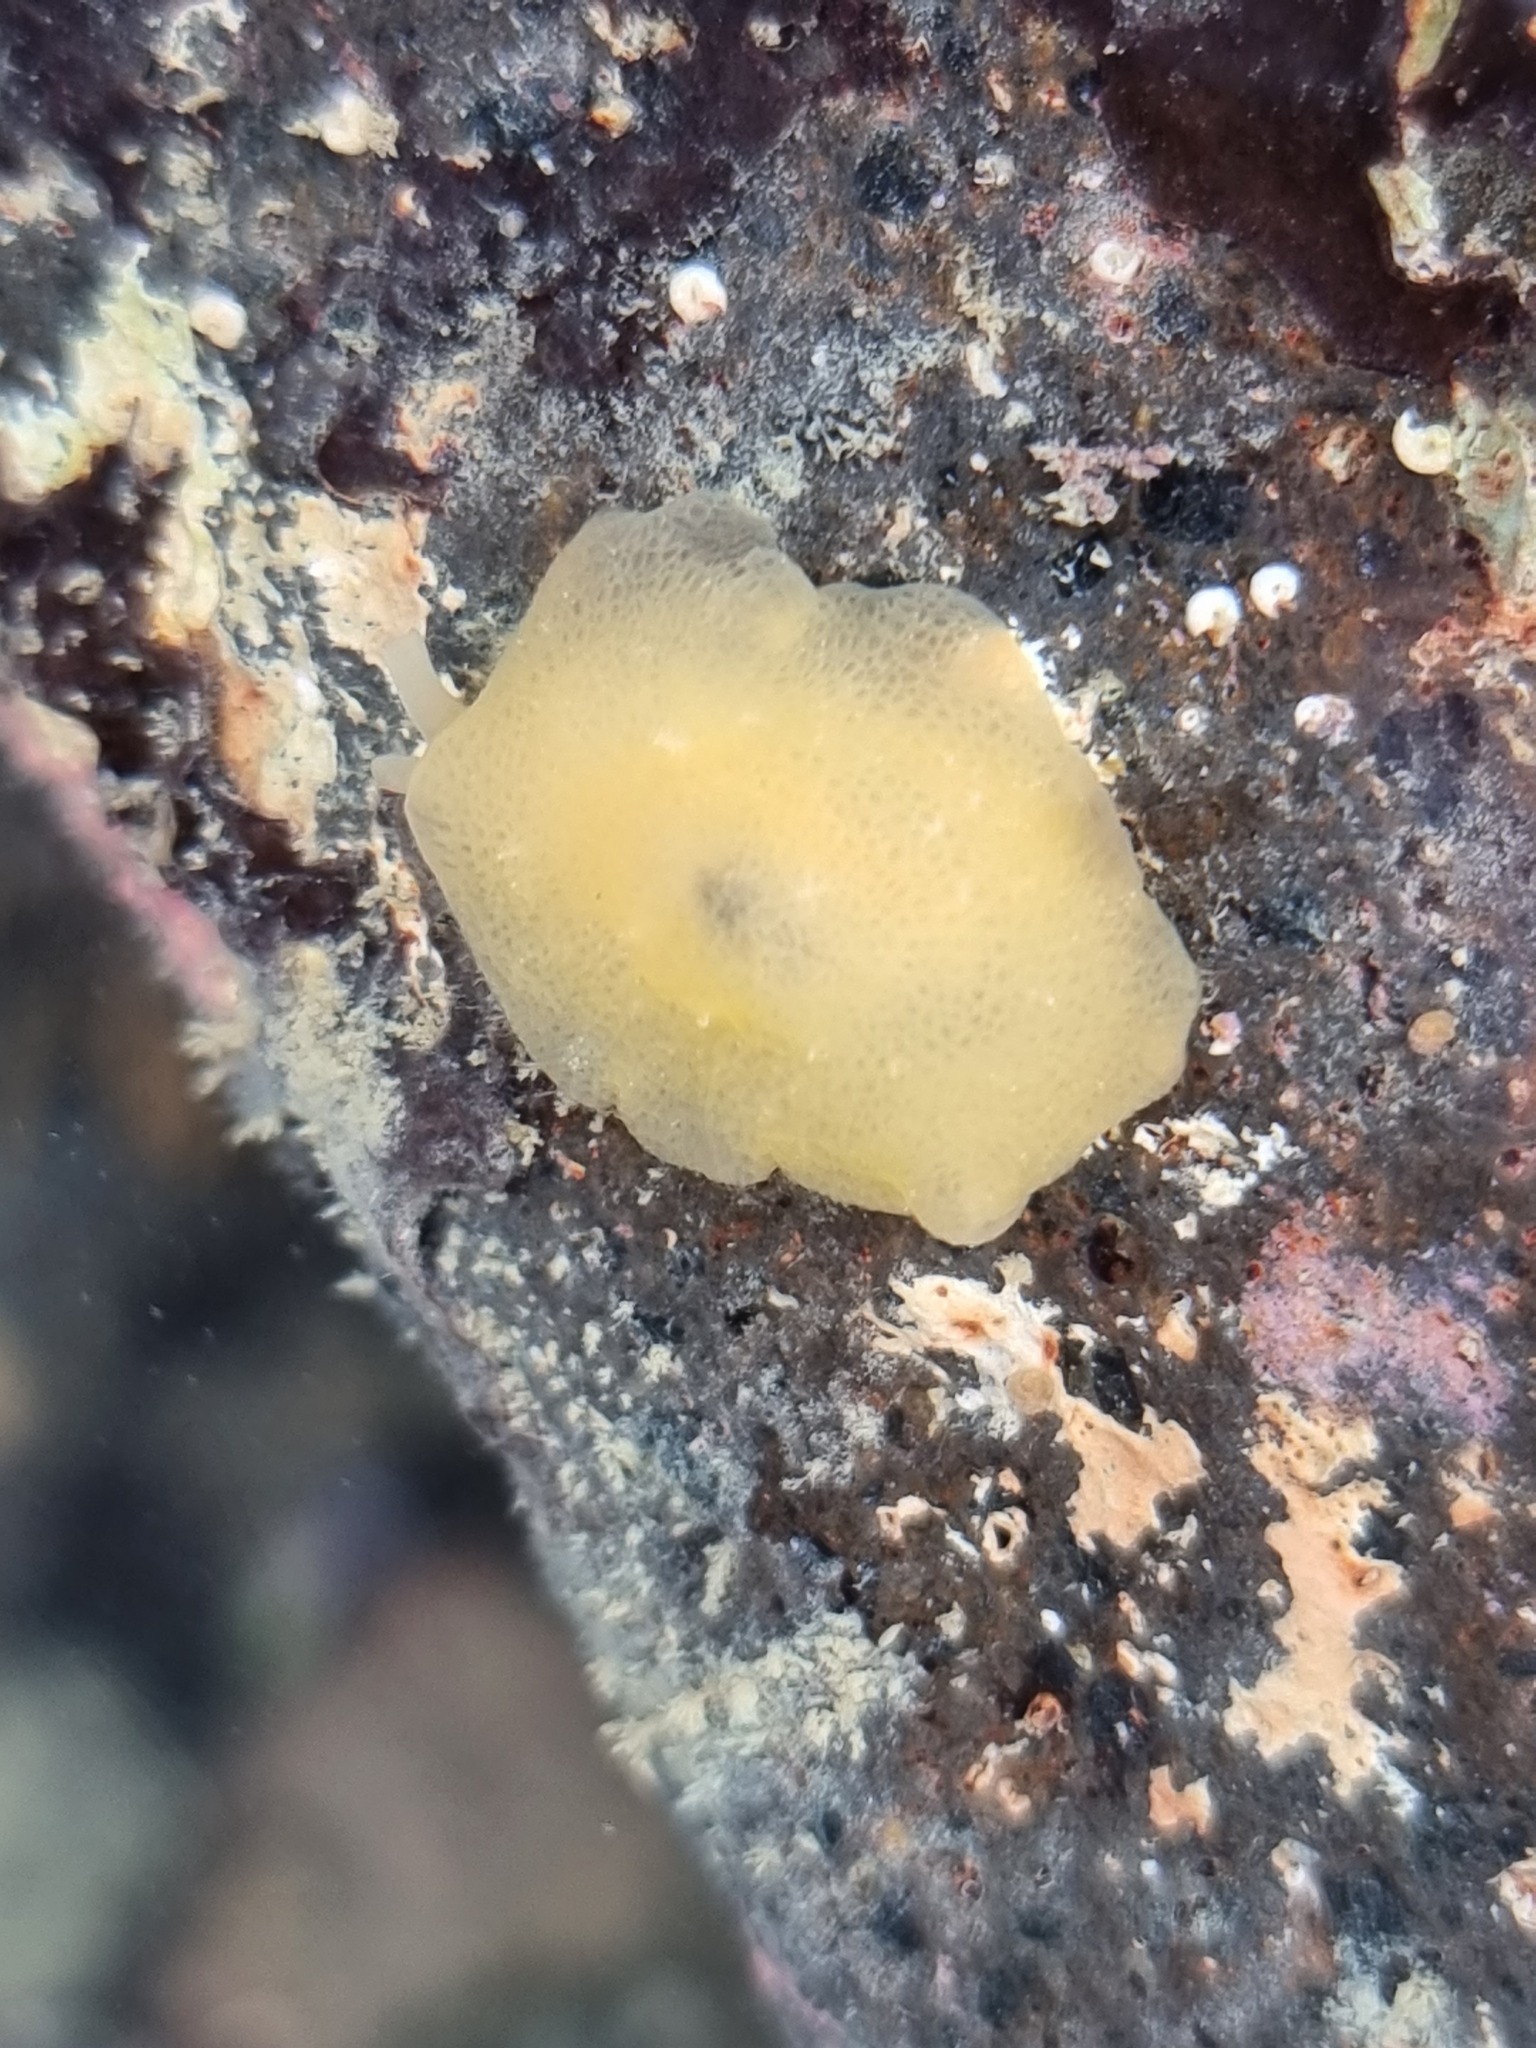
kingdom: Animalia
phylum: Mollusca
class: Gastropoda
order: Pleurobranchida
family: Pleurobranchidae
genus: Berthella
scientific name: Berthella medietas
